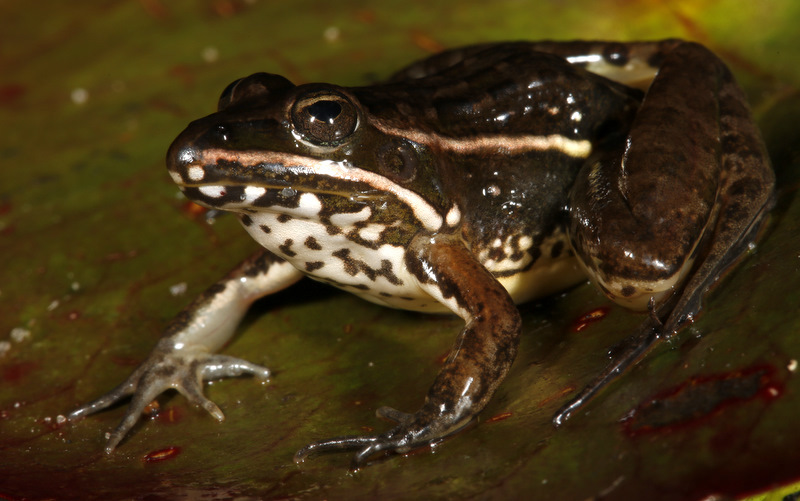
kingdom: Animalia
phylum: Chordata
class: Amphibia
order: Anura
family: Ptychadenidae
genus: Ptychadena
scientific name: Ptychadena taenioscelis
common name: Lukula grassland frog
